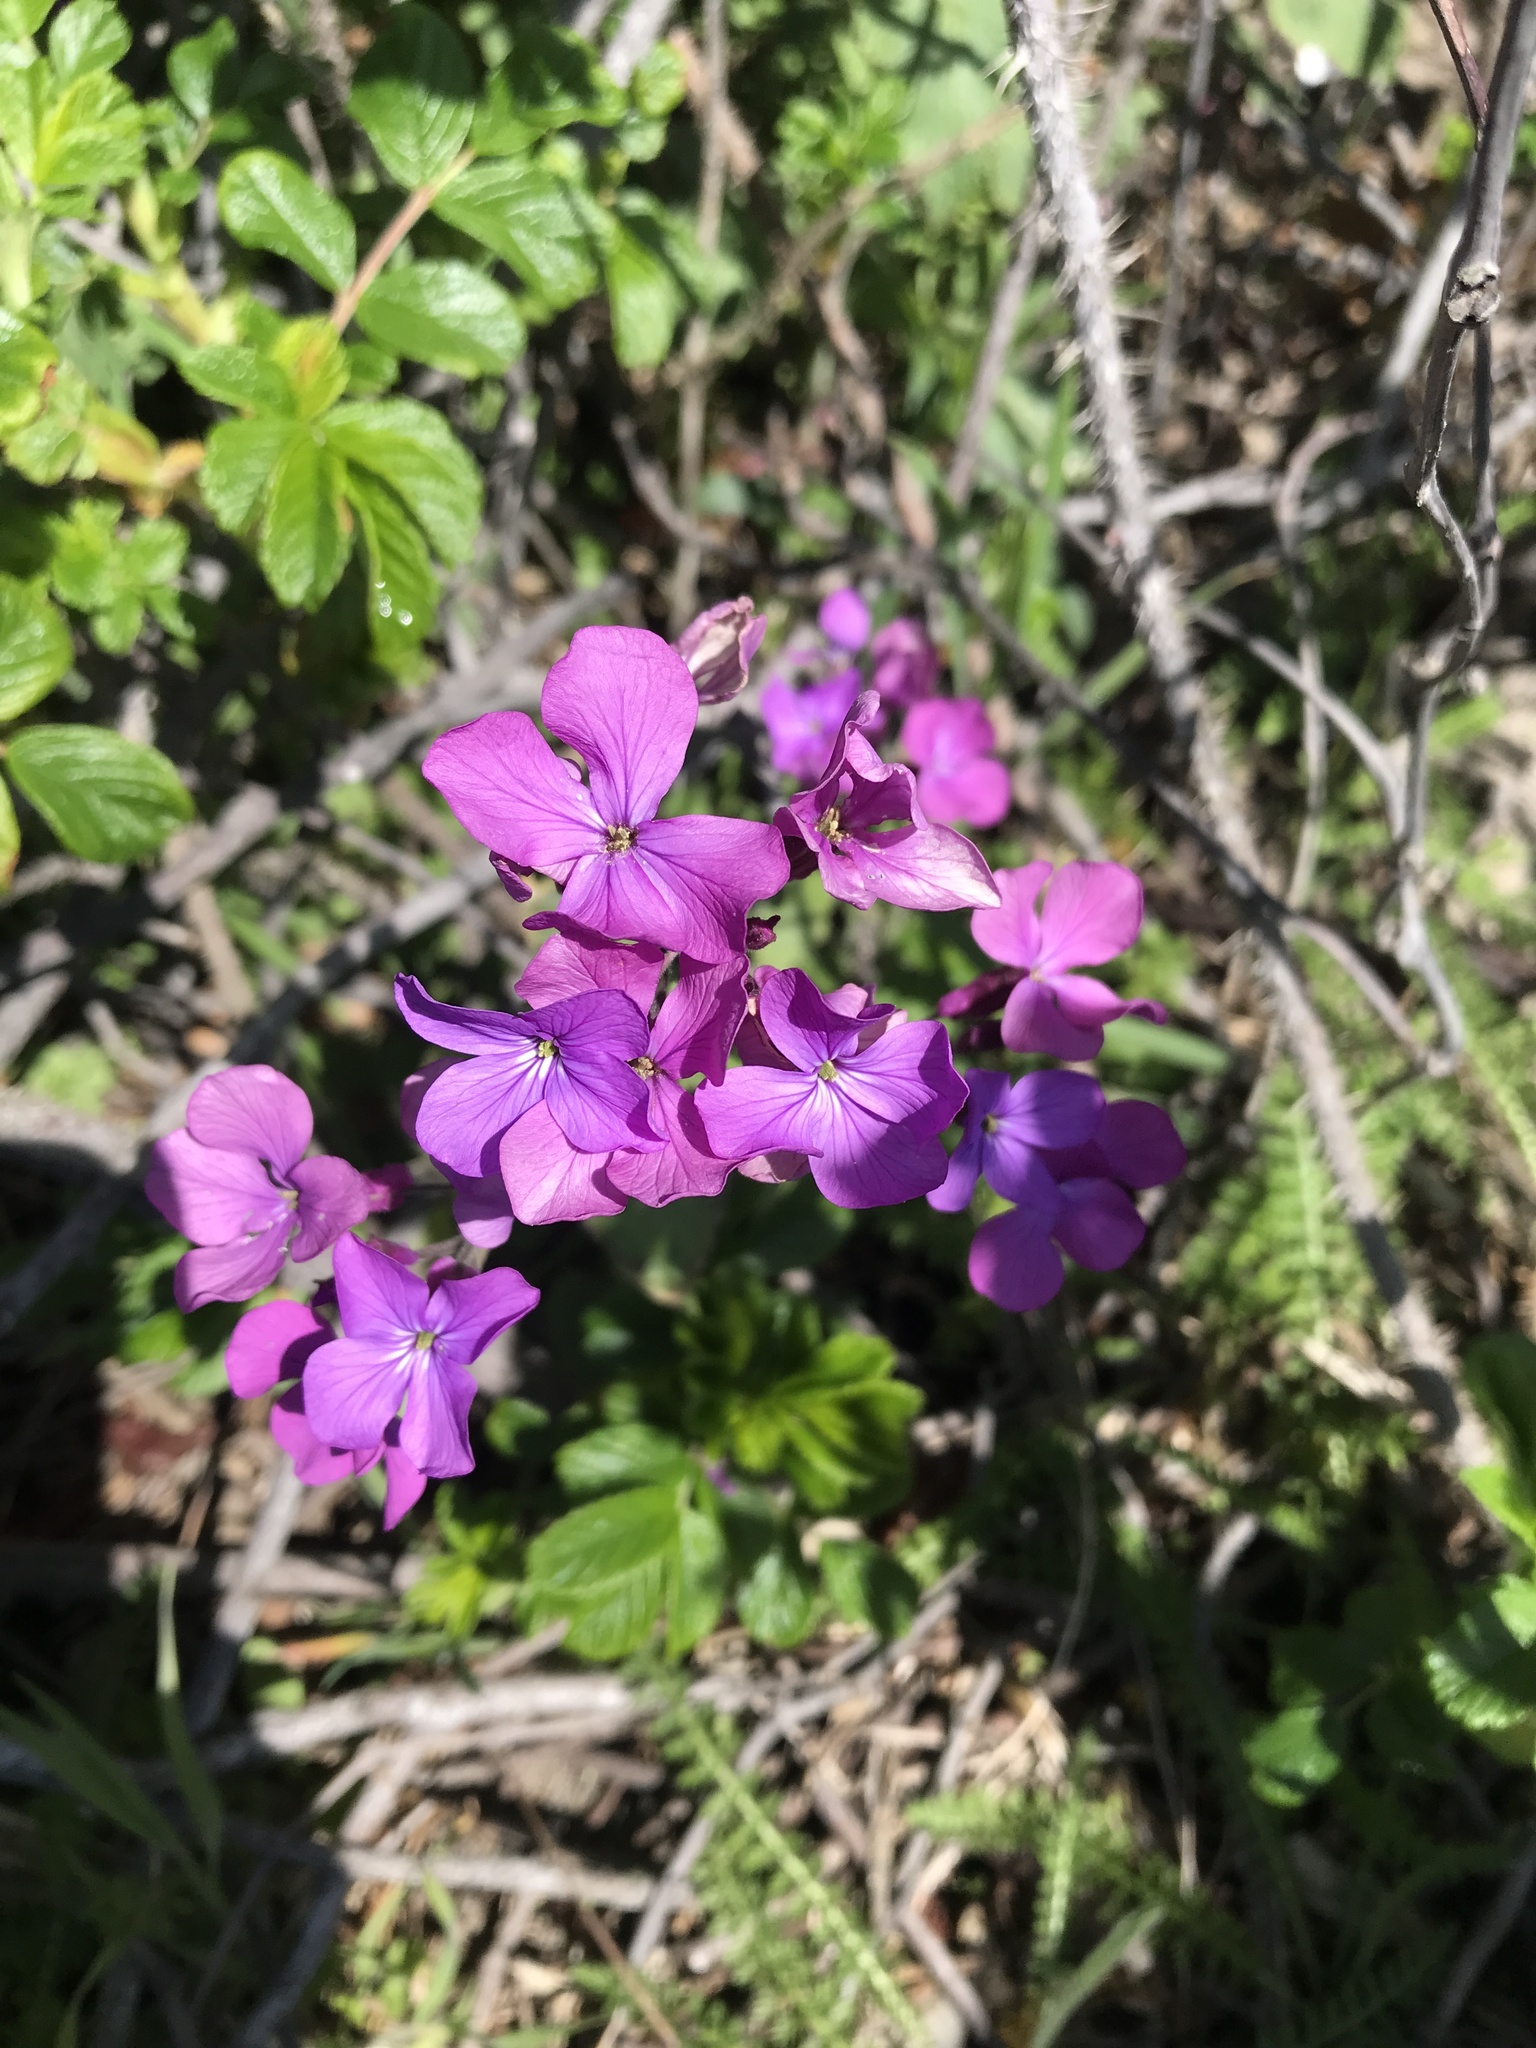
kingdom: Plantae
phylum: Tracheophyta
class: Magnoliopsida
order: Brassicales
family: Brassicaceae
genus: Lunaria
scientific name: Lunaria annua
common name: Honesty
